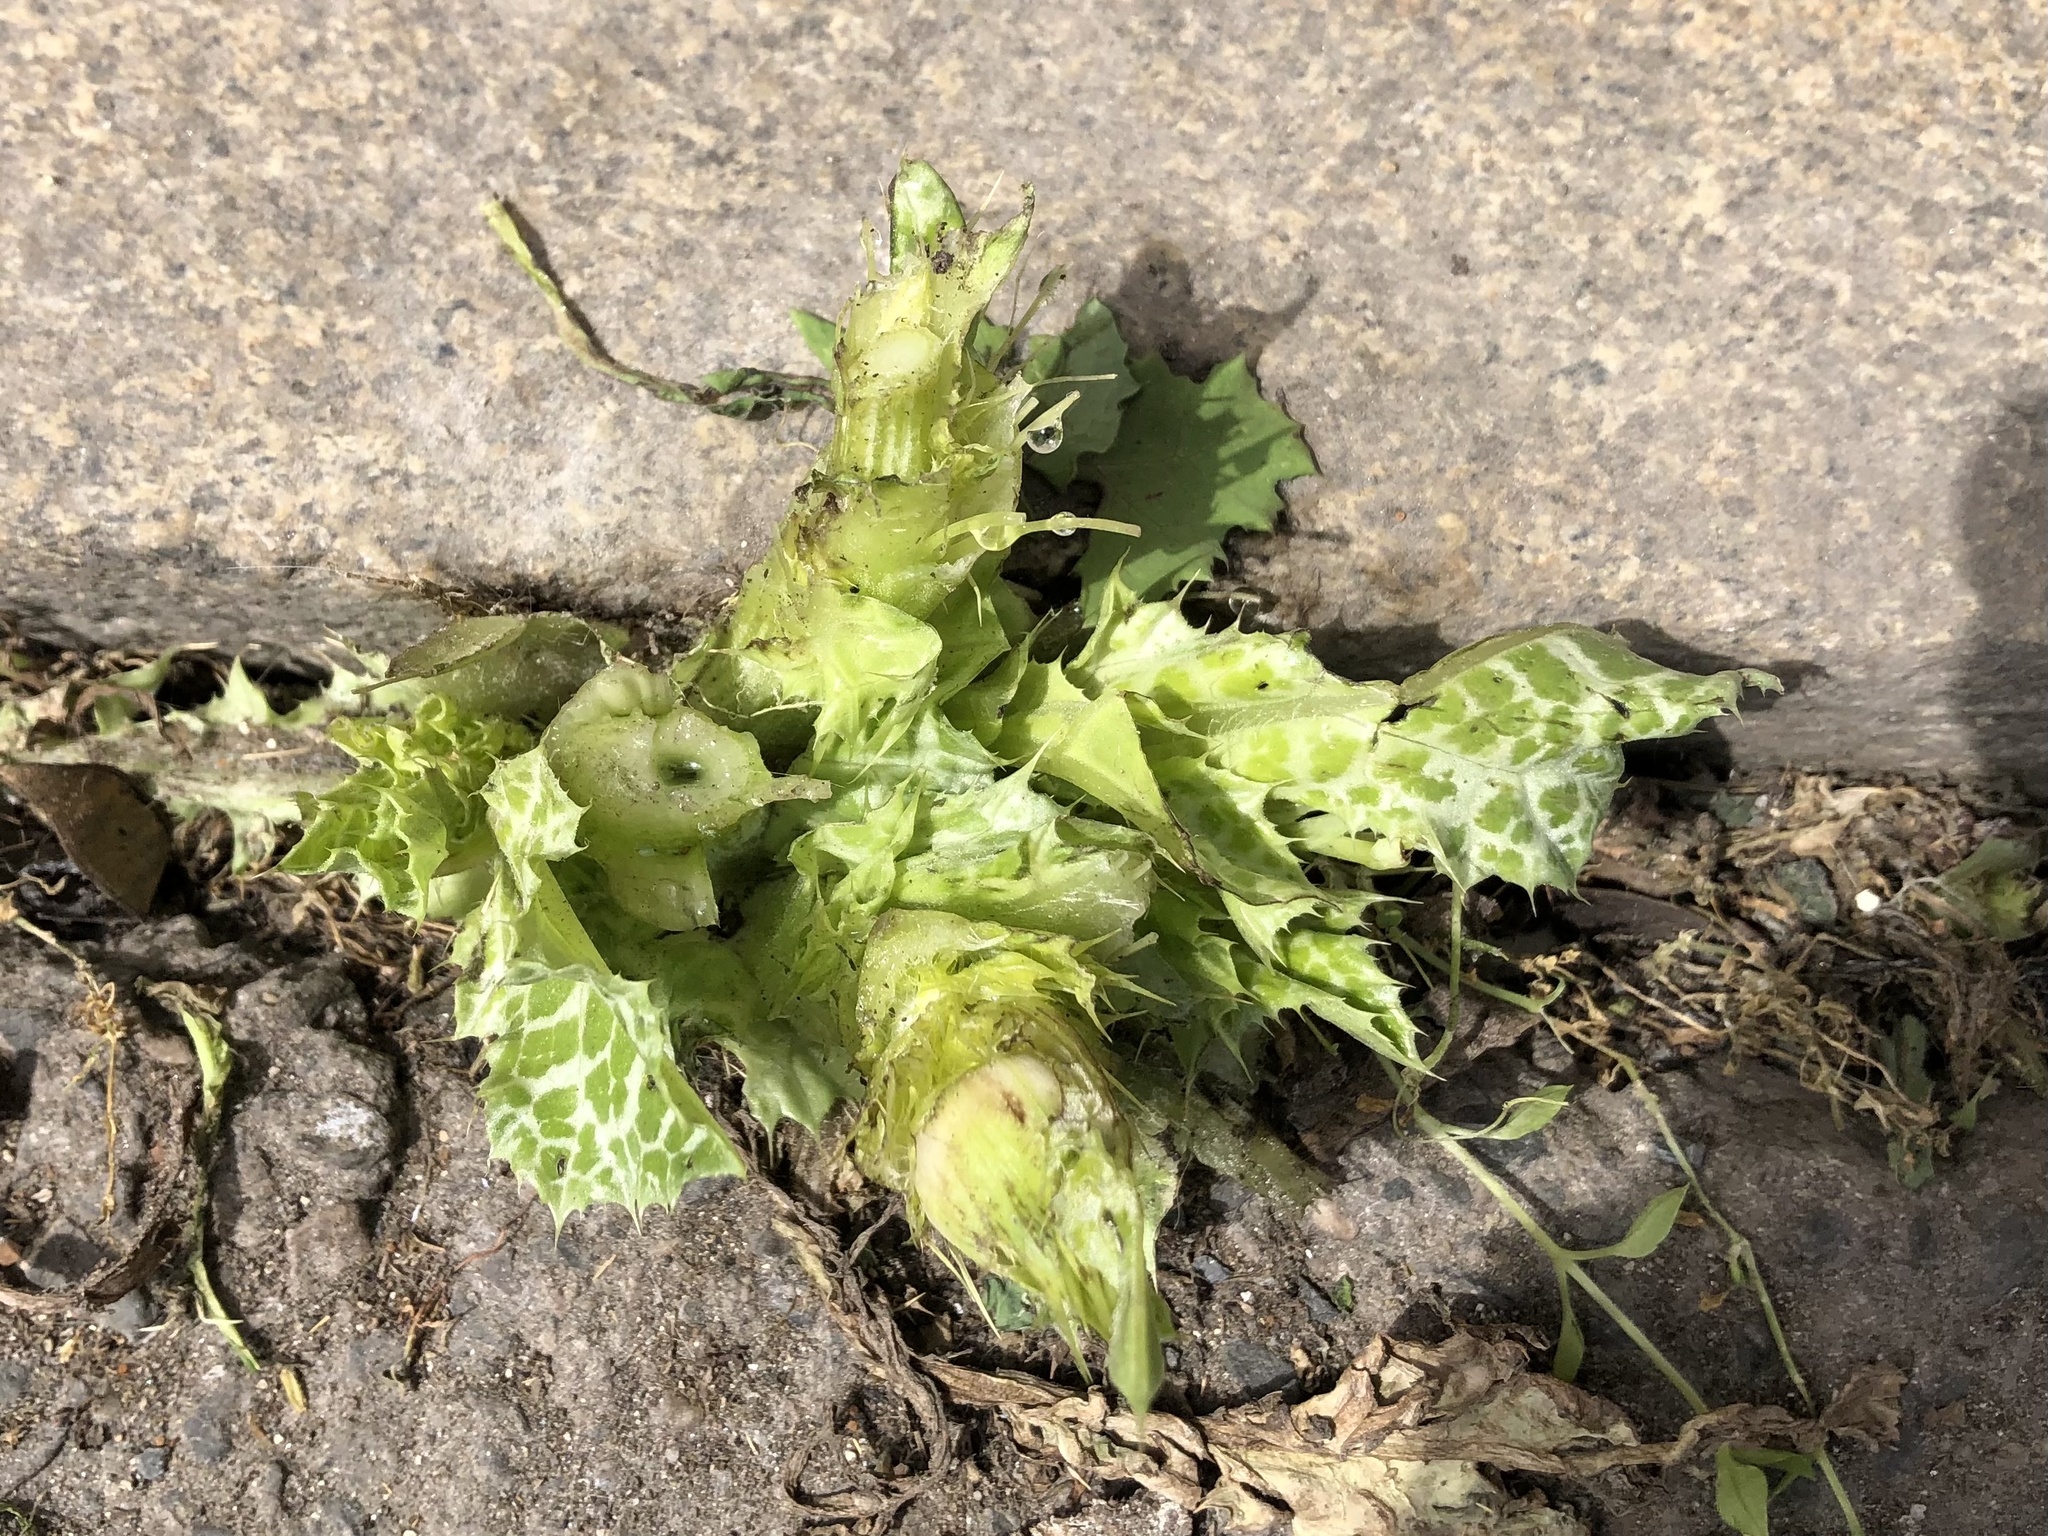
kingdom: Plantae
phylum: Tracheophyta
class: Magnoliopsida
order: Asterales
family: Asteraceae
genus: Silybum
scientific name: Silybum marianum
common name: Milk thistle
